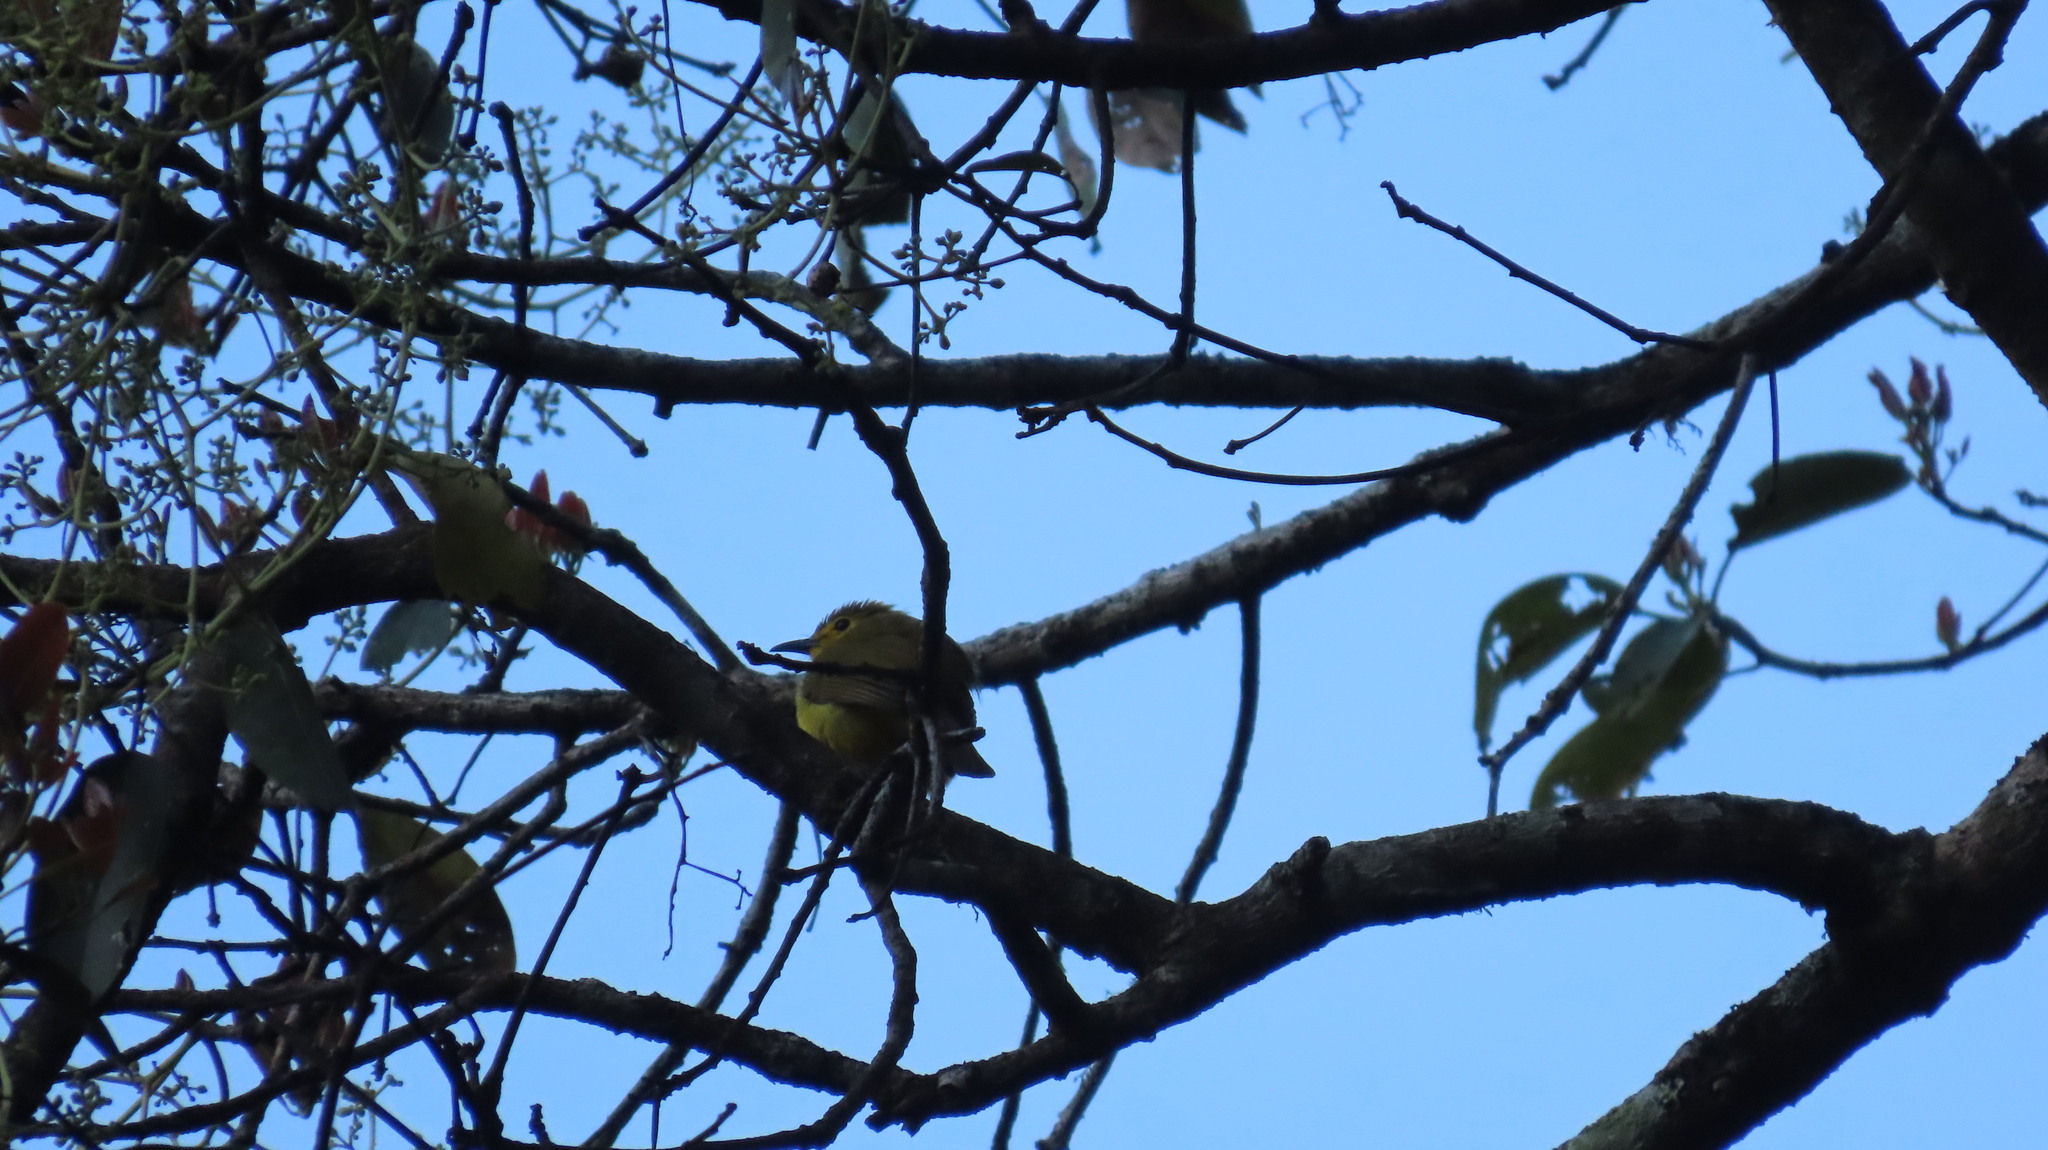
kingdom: Animalia
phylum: Chordata
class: Aves
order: Passeriformes
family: Pycnonotidae
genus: Acritillas
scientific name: Acritillas indica
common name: Yellow-browed bulbul
